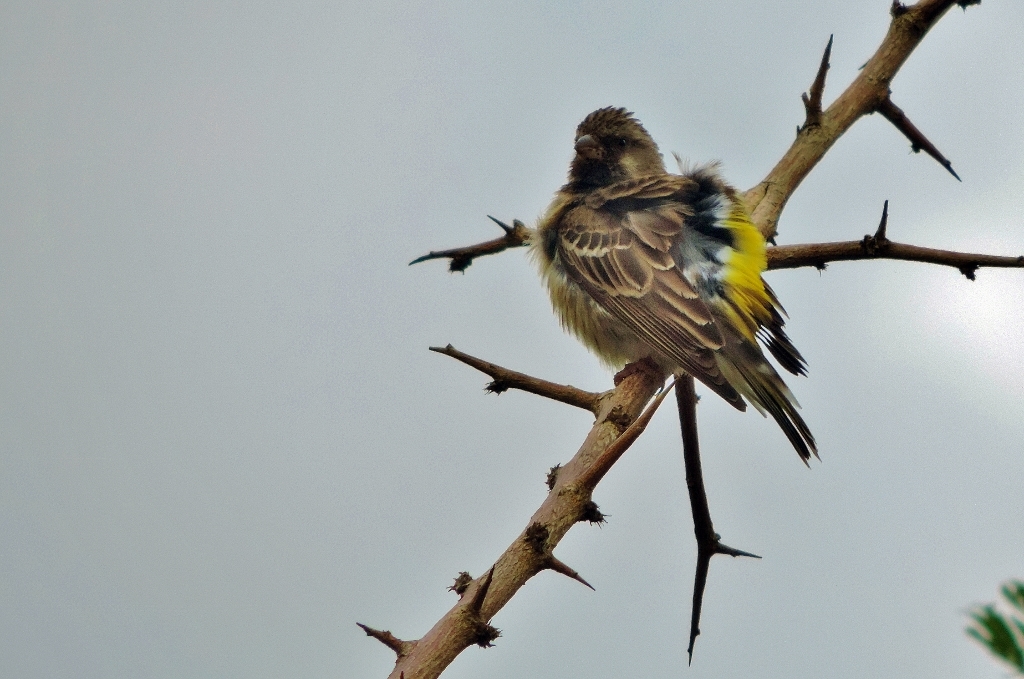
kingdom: Animalia
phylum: Chordata
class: Aves
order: Passeriformes
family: Fringillidae
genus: Crithagra
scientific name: Crithagra atrogularis
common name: Black-throated canary
